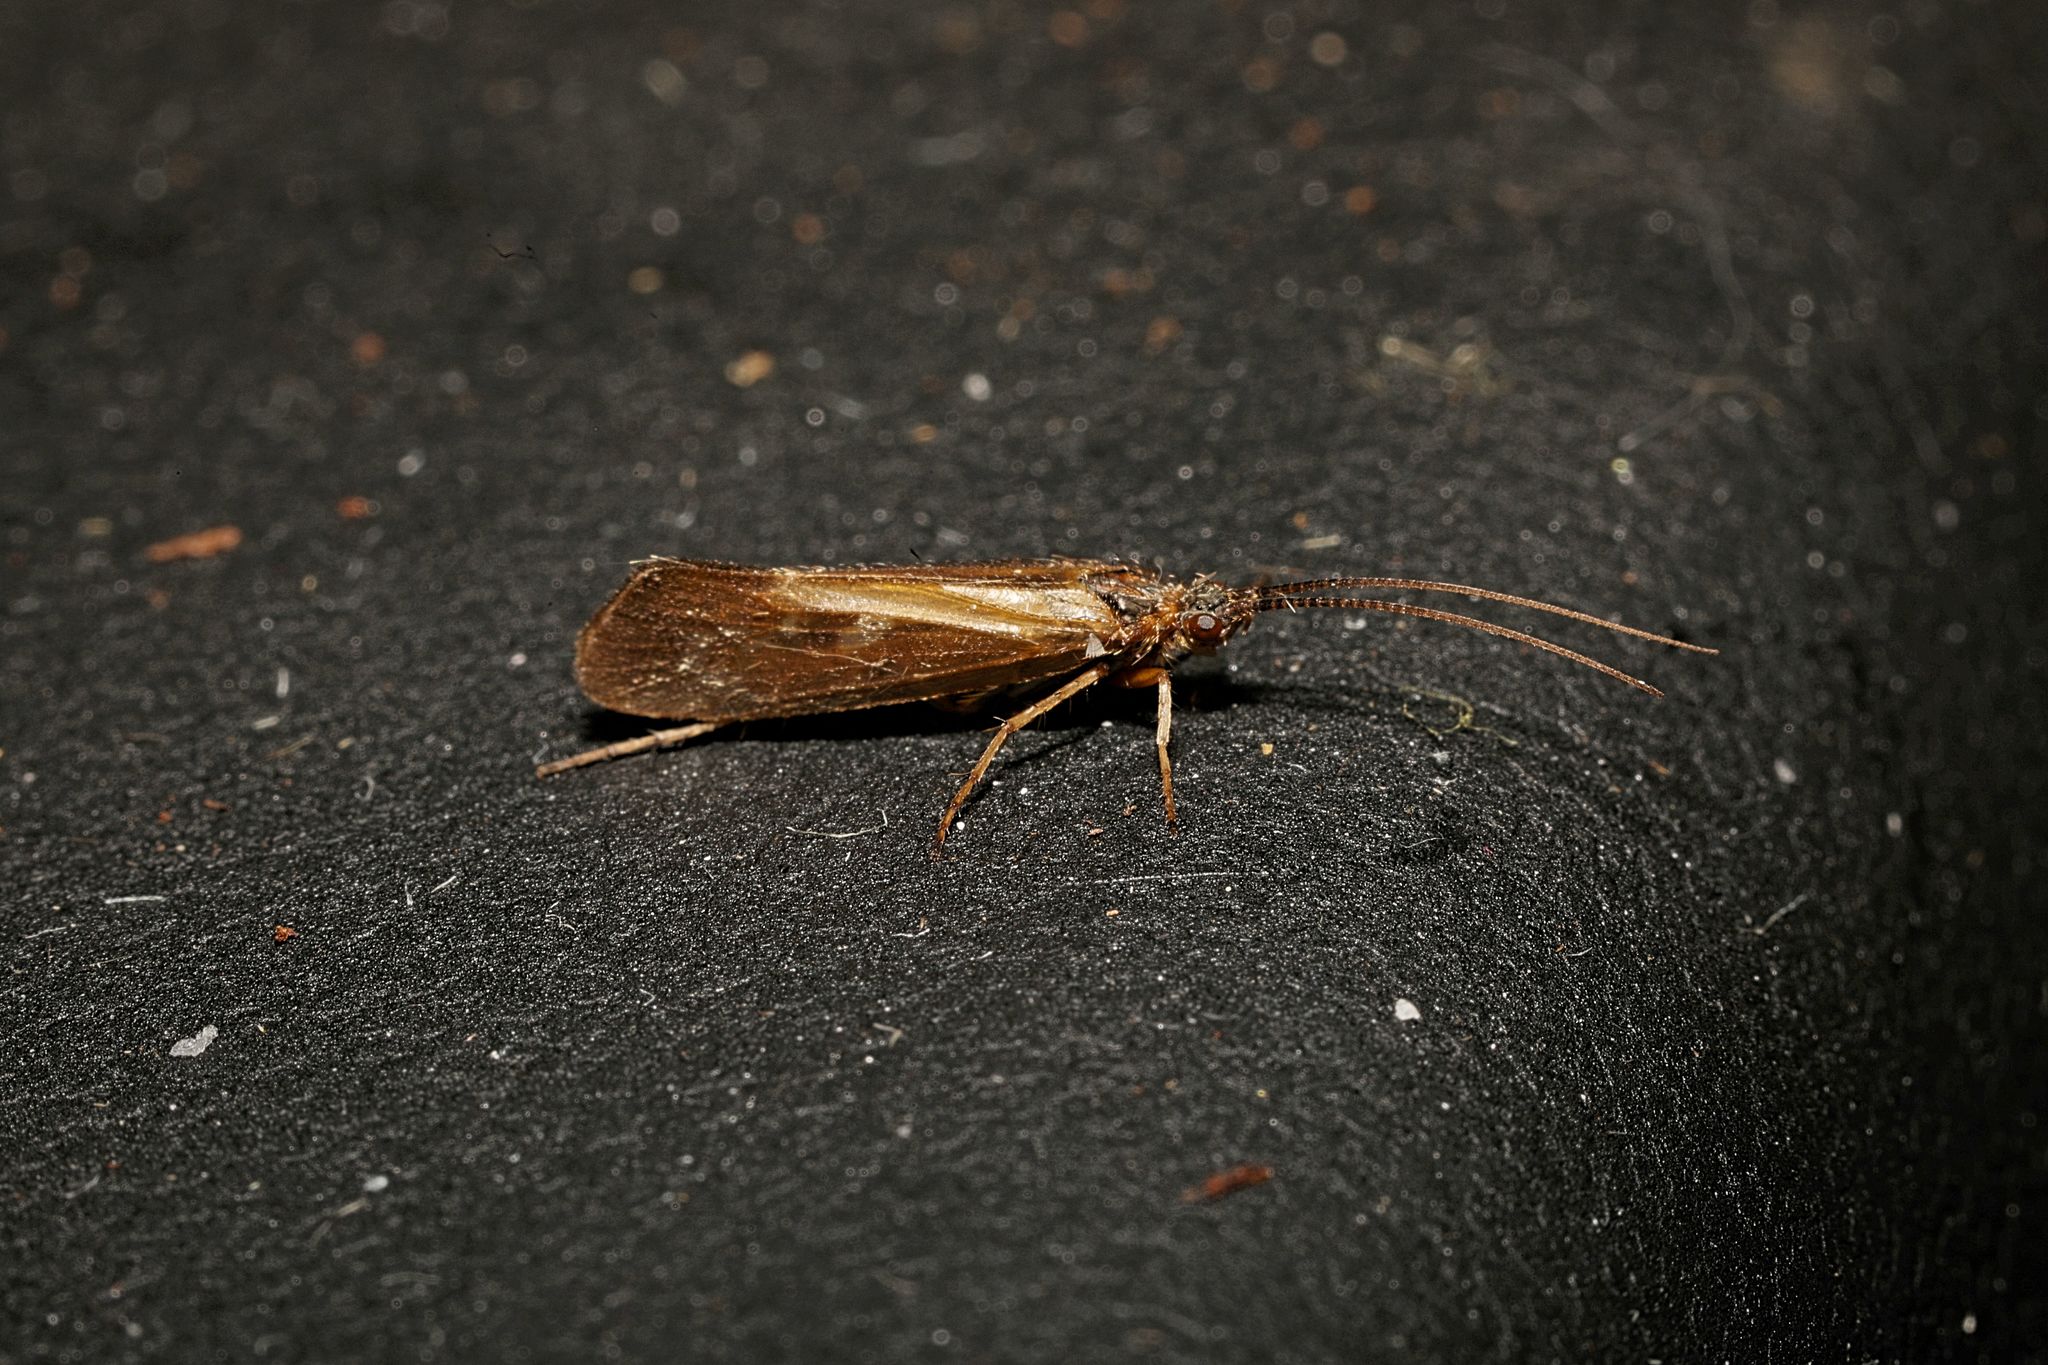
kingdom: Animalia
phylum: Arthropoda
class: Insecta
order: Trichoptera
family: Limnephilidae
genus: Limnephilus
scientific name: Limnephilus auricula
